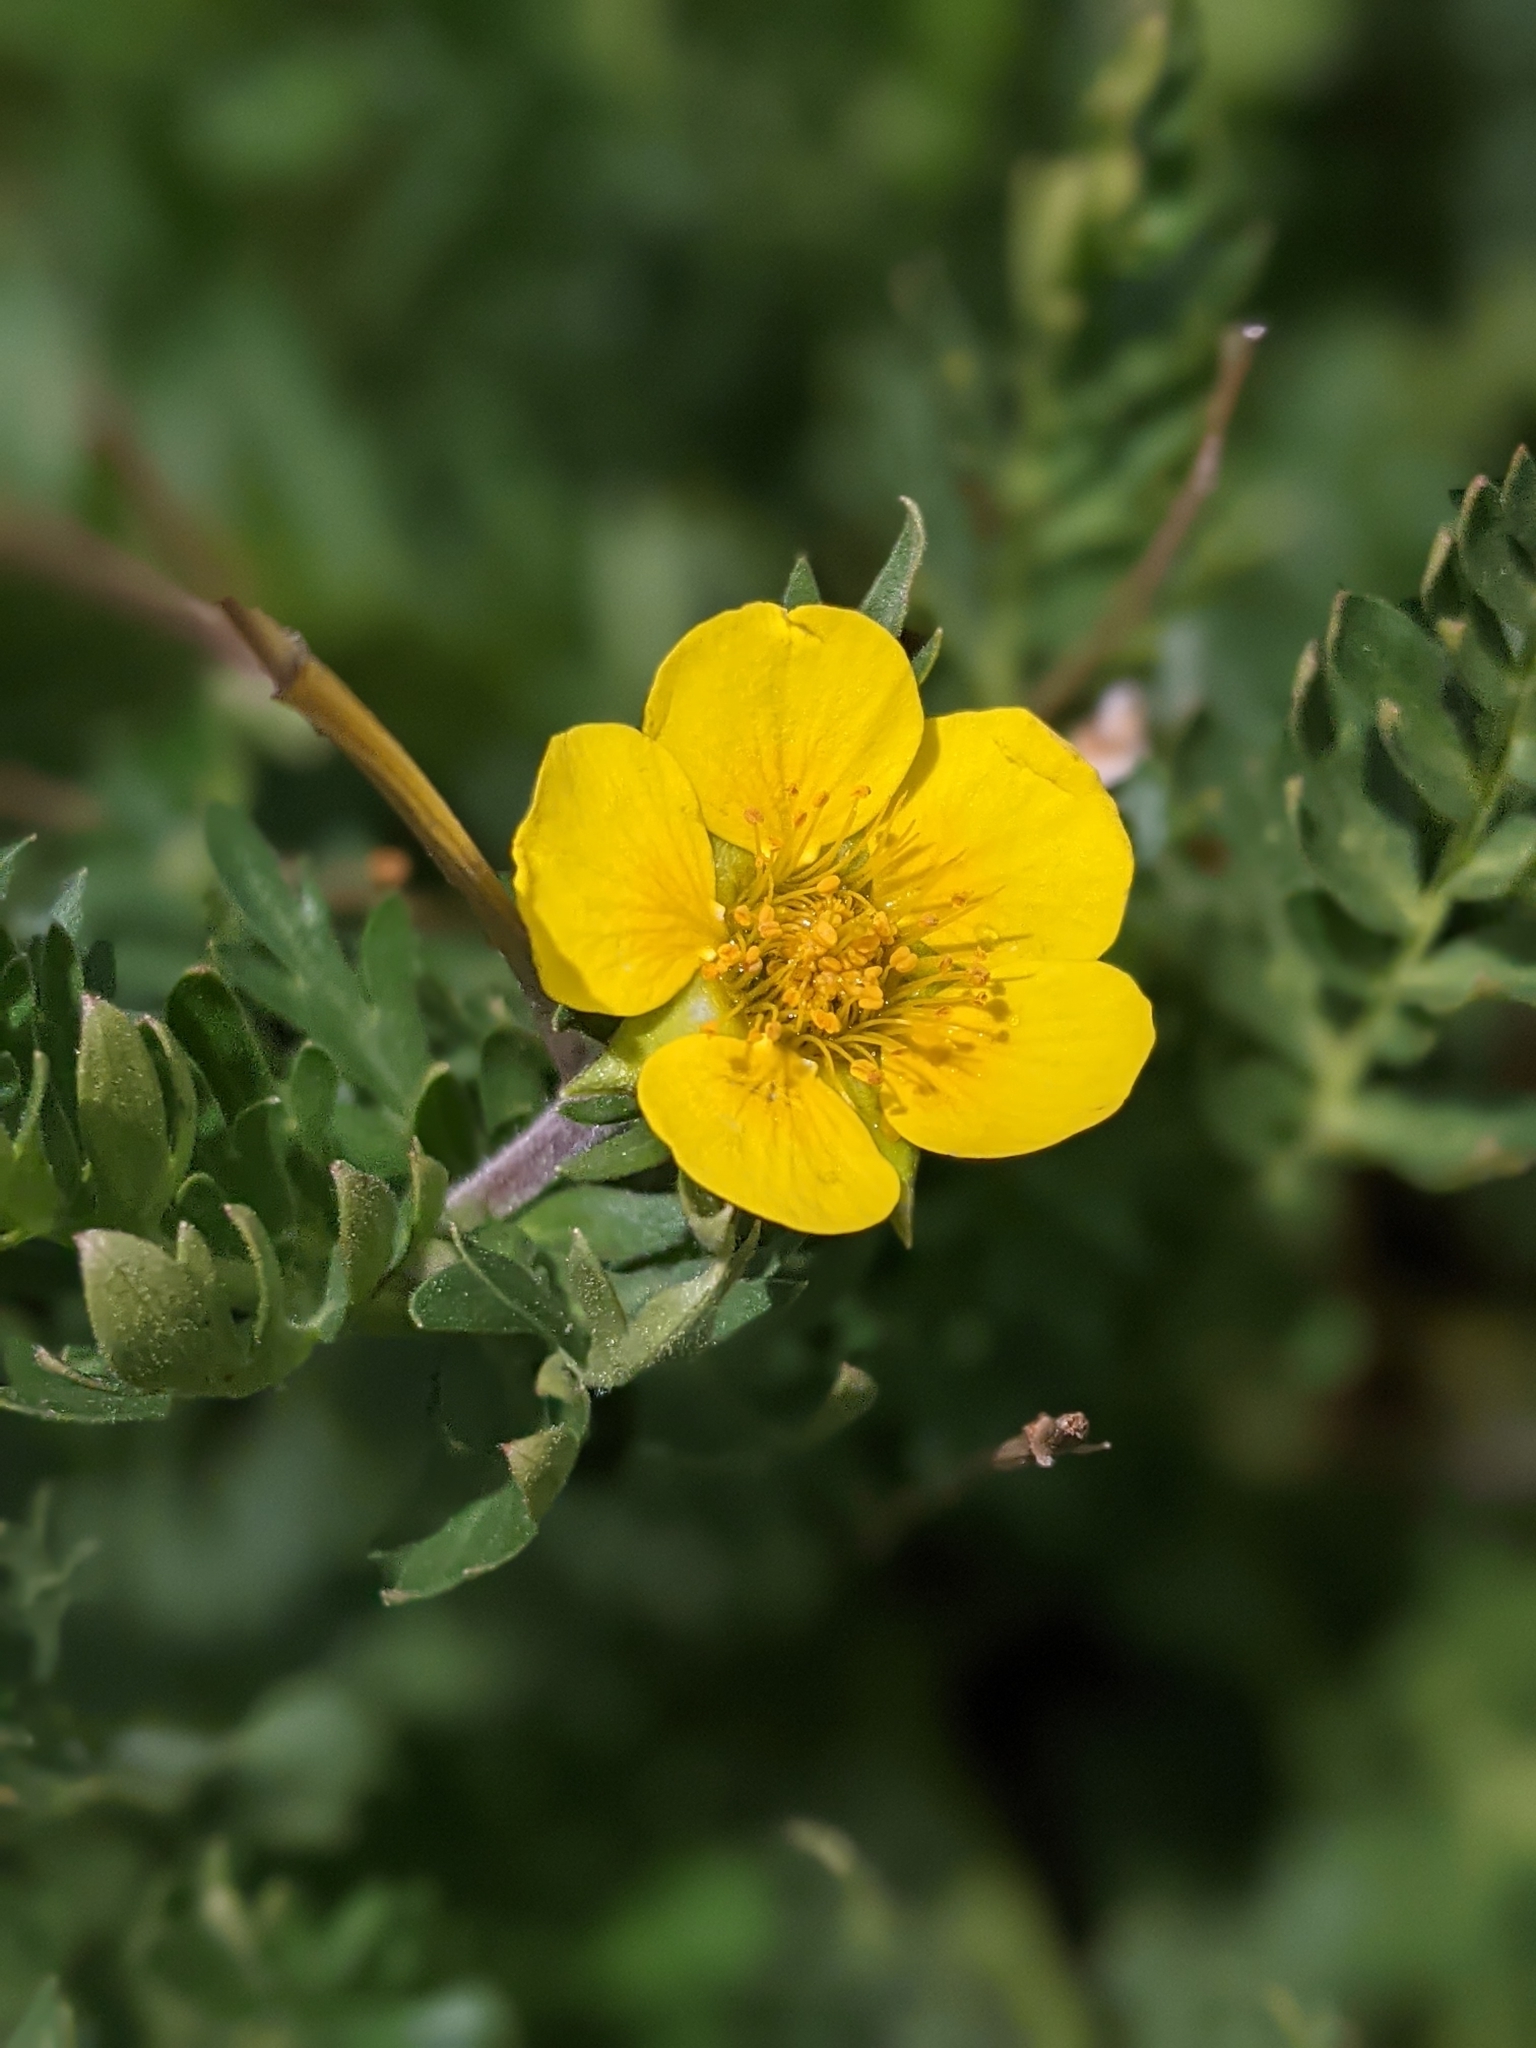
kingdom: Plantae
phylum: Tracheophyta
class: Magnoliopsida
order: Rosales
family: Rosaceae
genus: Geum
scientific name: Geum rossii
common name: Alpine avens
